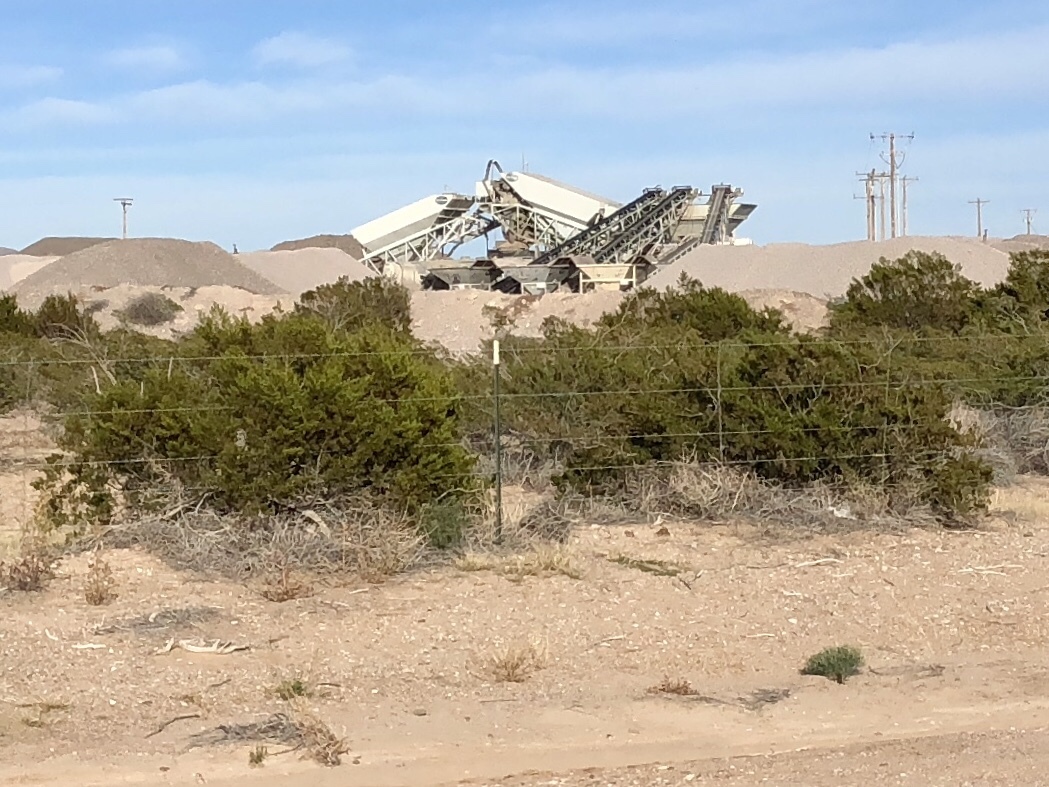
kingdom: Plantae
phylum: Tracheophyta
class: Magnoliopsida
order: Zygophyllales
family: Zygophyllaceae
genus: Larrea
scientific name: Larrea tridentata
